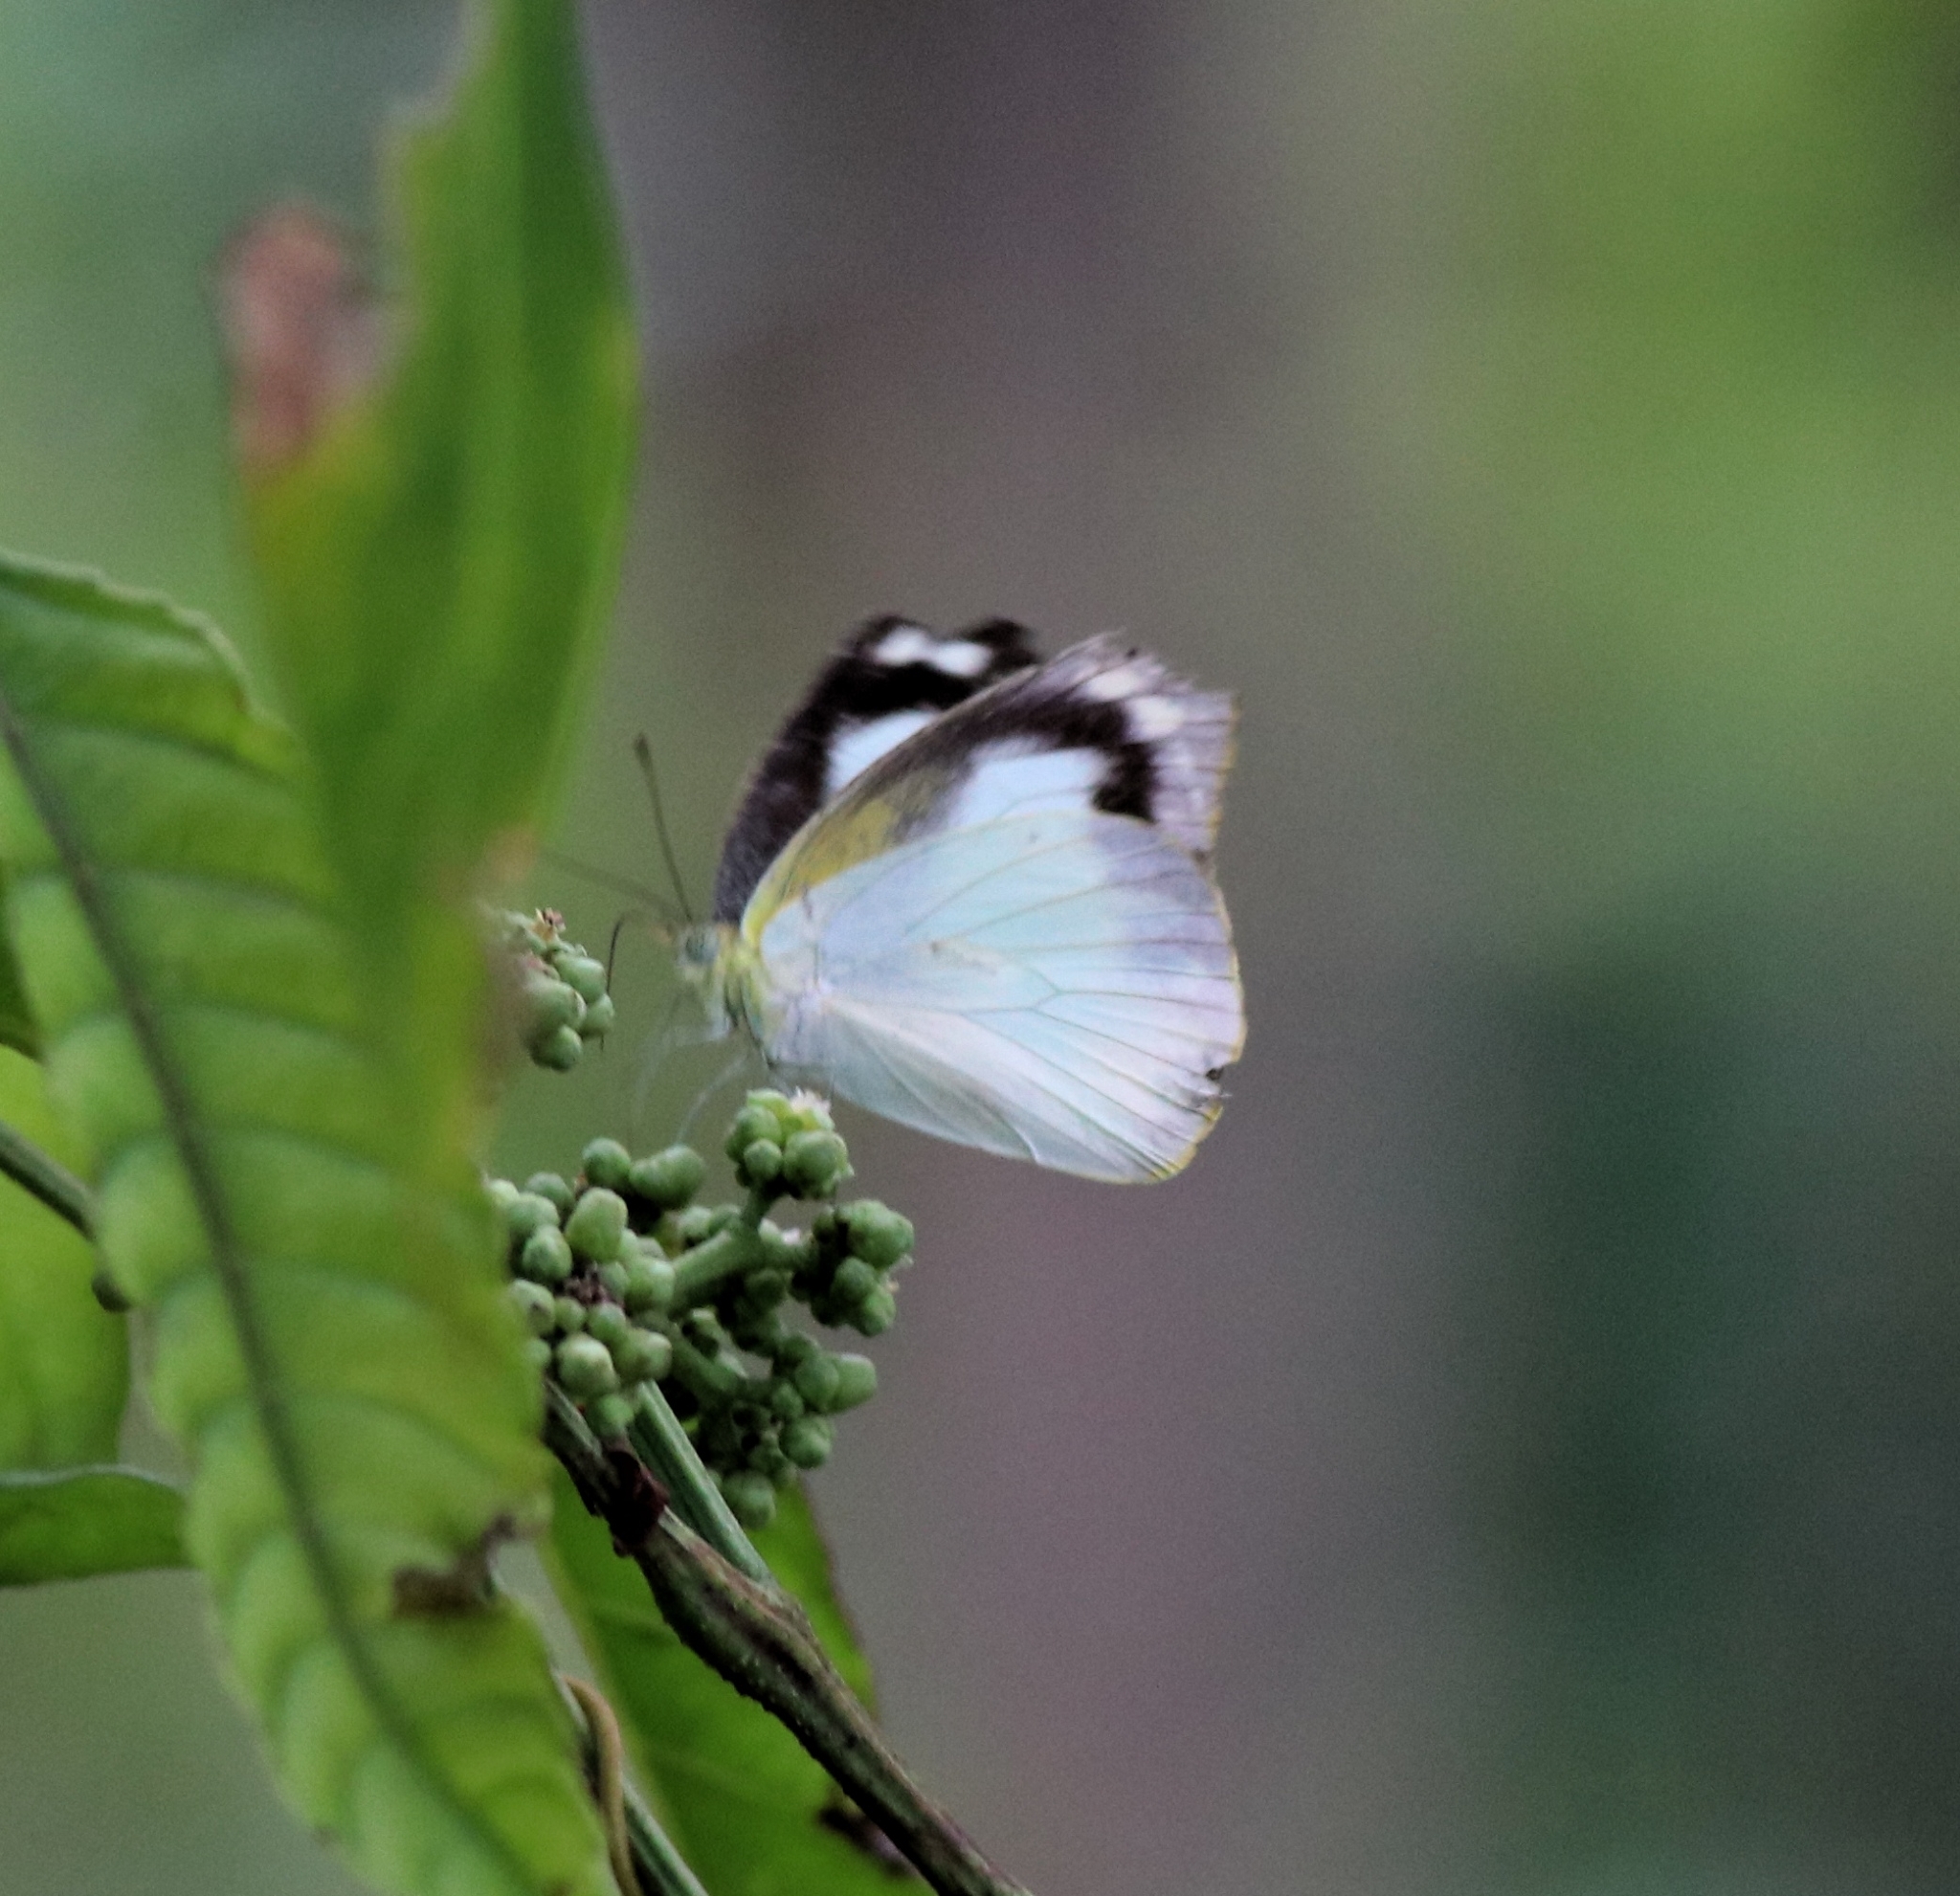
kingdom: Animalia
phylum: Arthropoda
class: Insecta
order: Lepidoptera
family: Pieridae
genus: Appias
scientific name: Appias albina
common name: Common albatross
